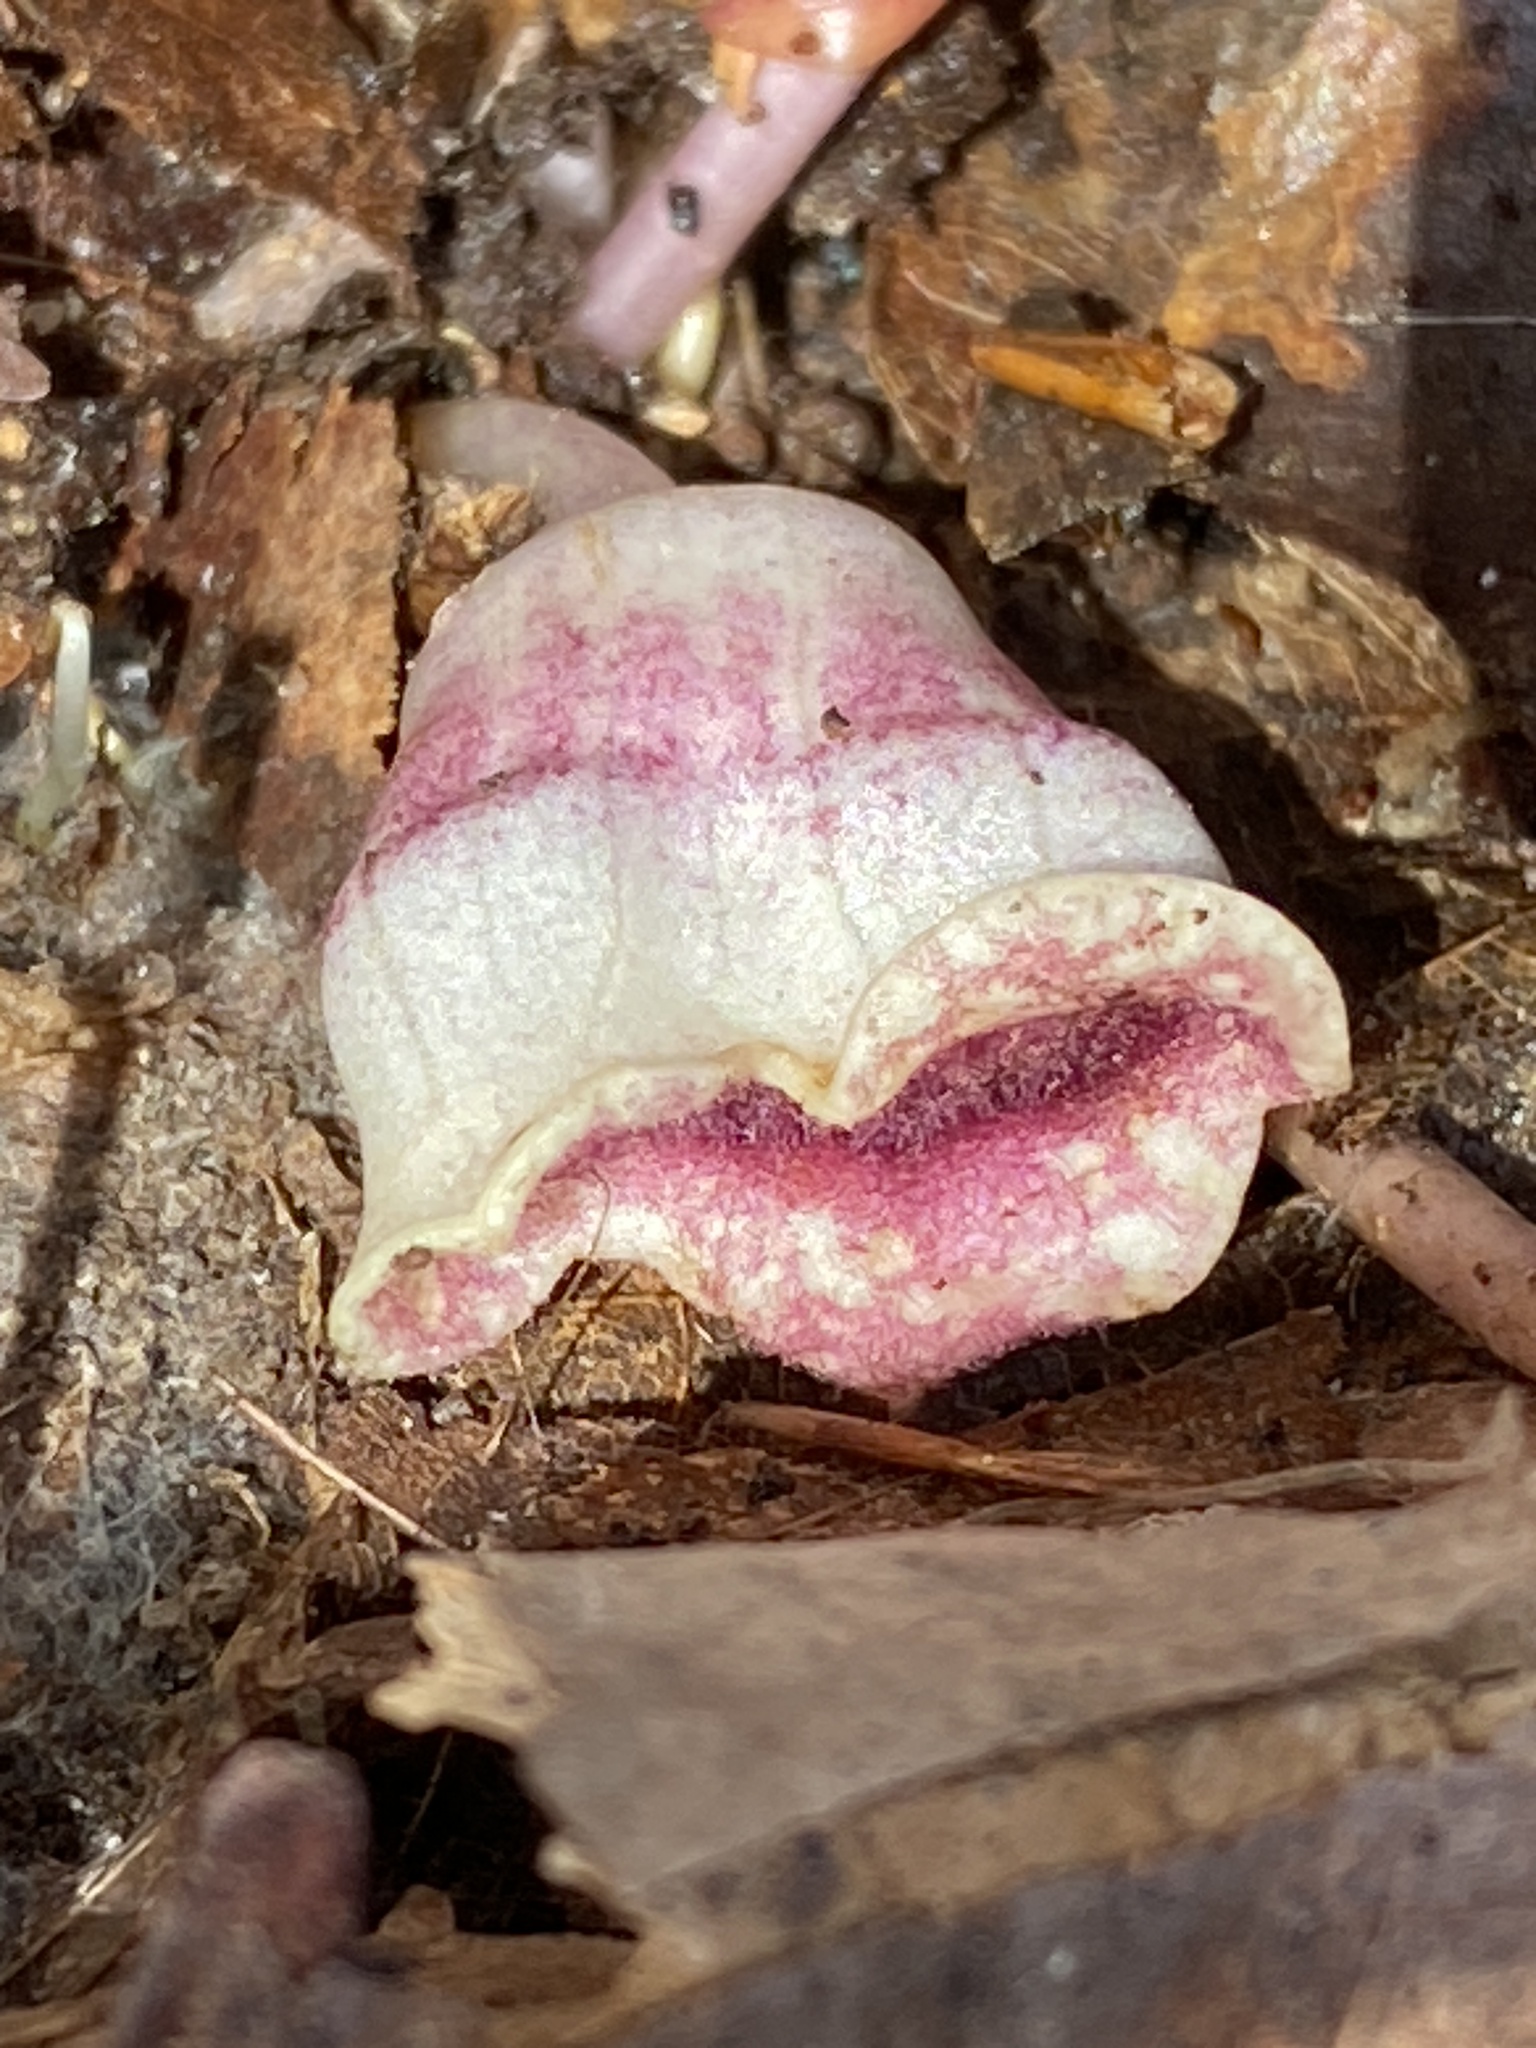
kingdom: Plantae
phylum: Tracheophyta
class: Magnoliopsida
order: Piperales
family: Aristolochiaceae
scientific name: Aristolochiaceae
